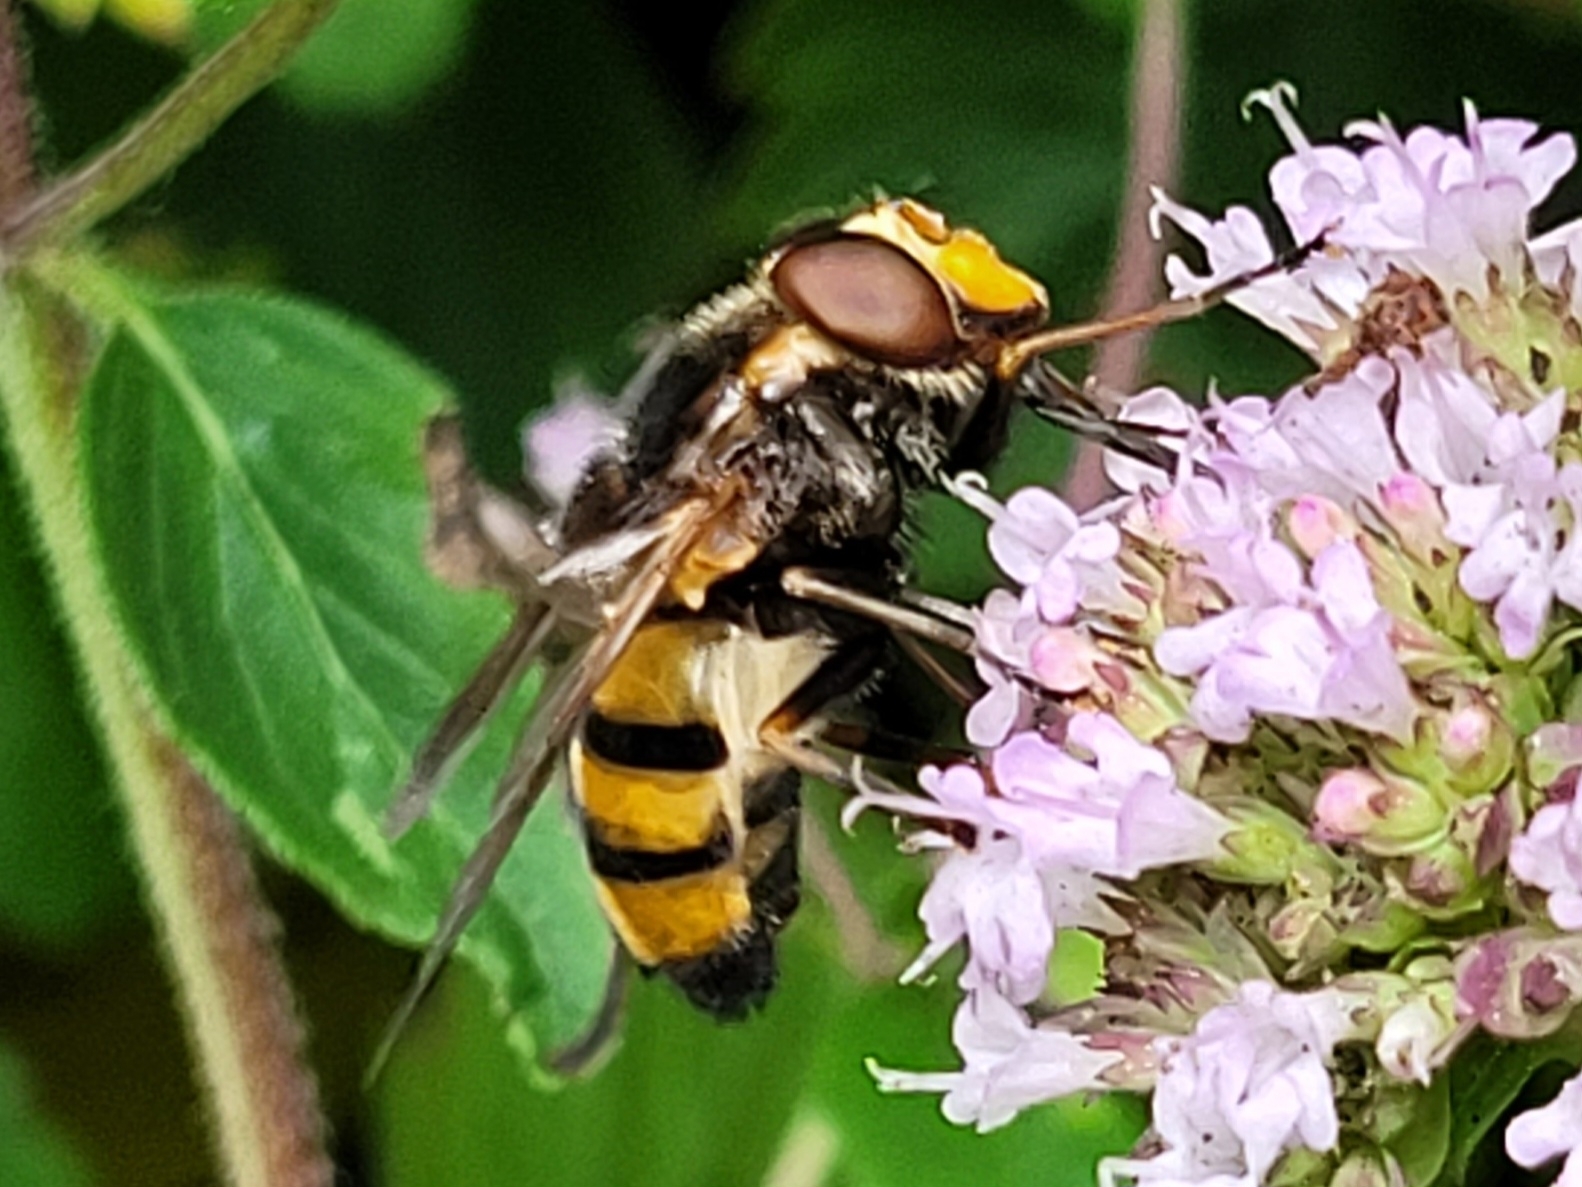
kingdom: Animalia
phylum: Arthropoda
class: Insecta
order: Diptera
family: Syrphidae
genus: Volucella
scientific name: Volucella inanis
